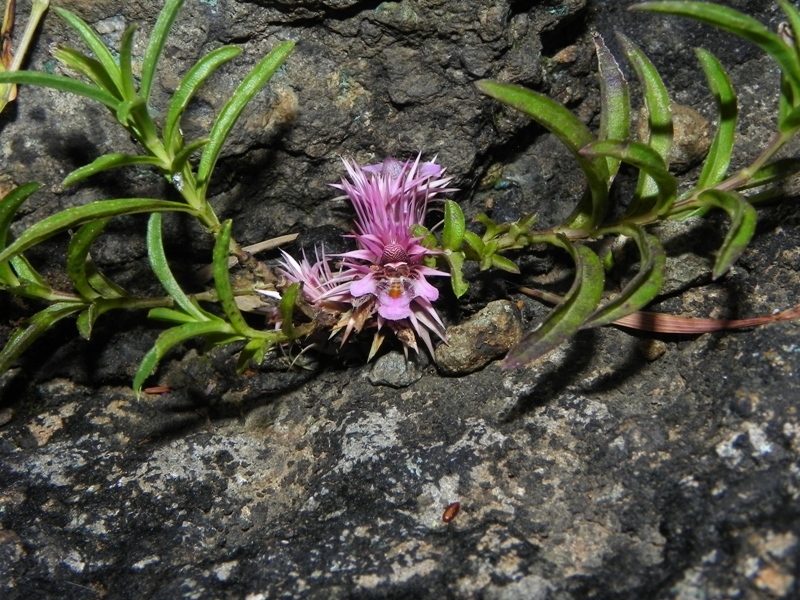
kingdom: Plantae
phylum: Tracheophyta
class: Magnoliopsida
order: Lamiales
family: Acanthaceae
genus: Lepidagathis
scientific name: Lepidagathis trinervis
